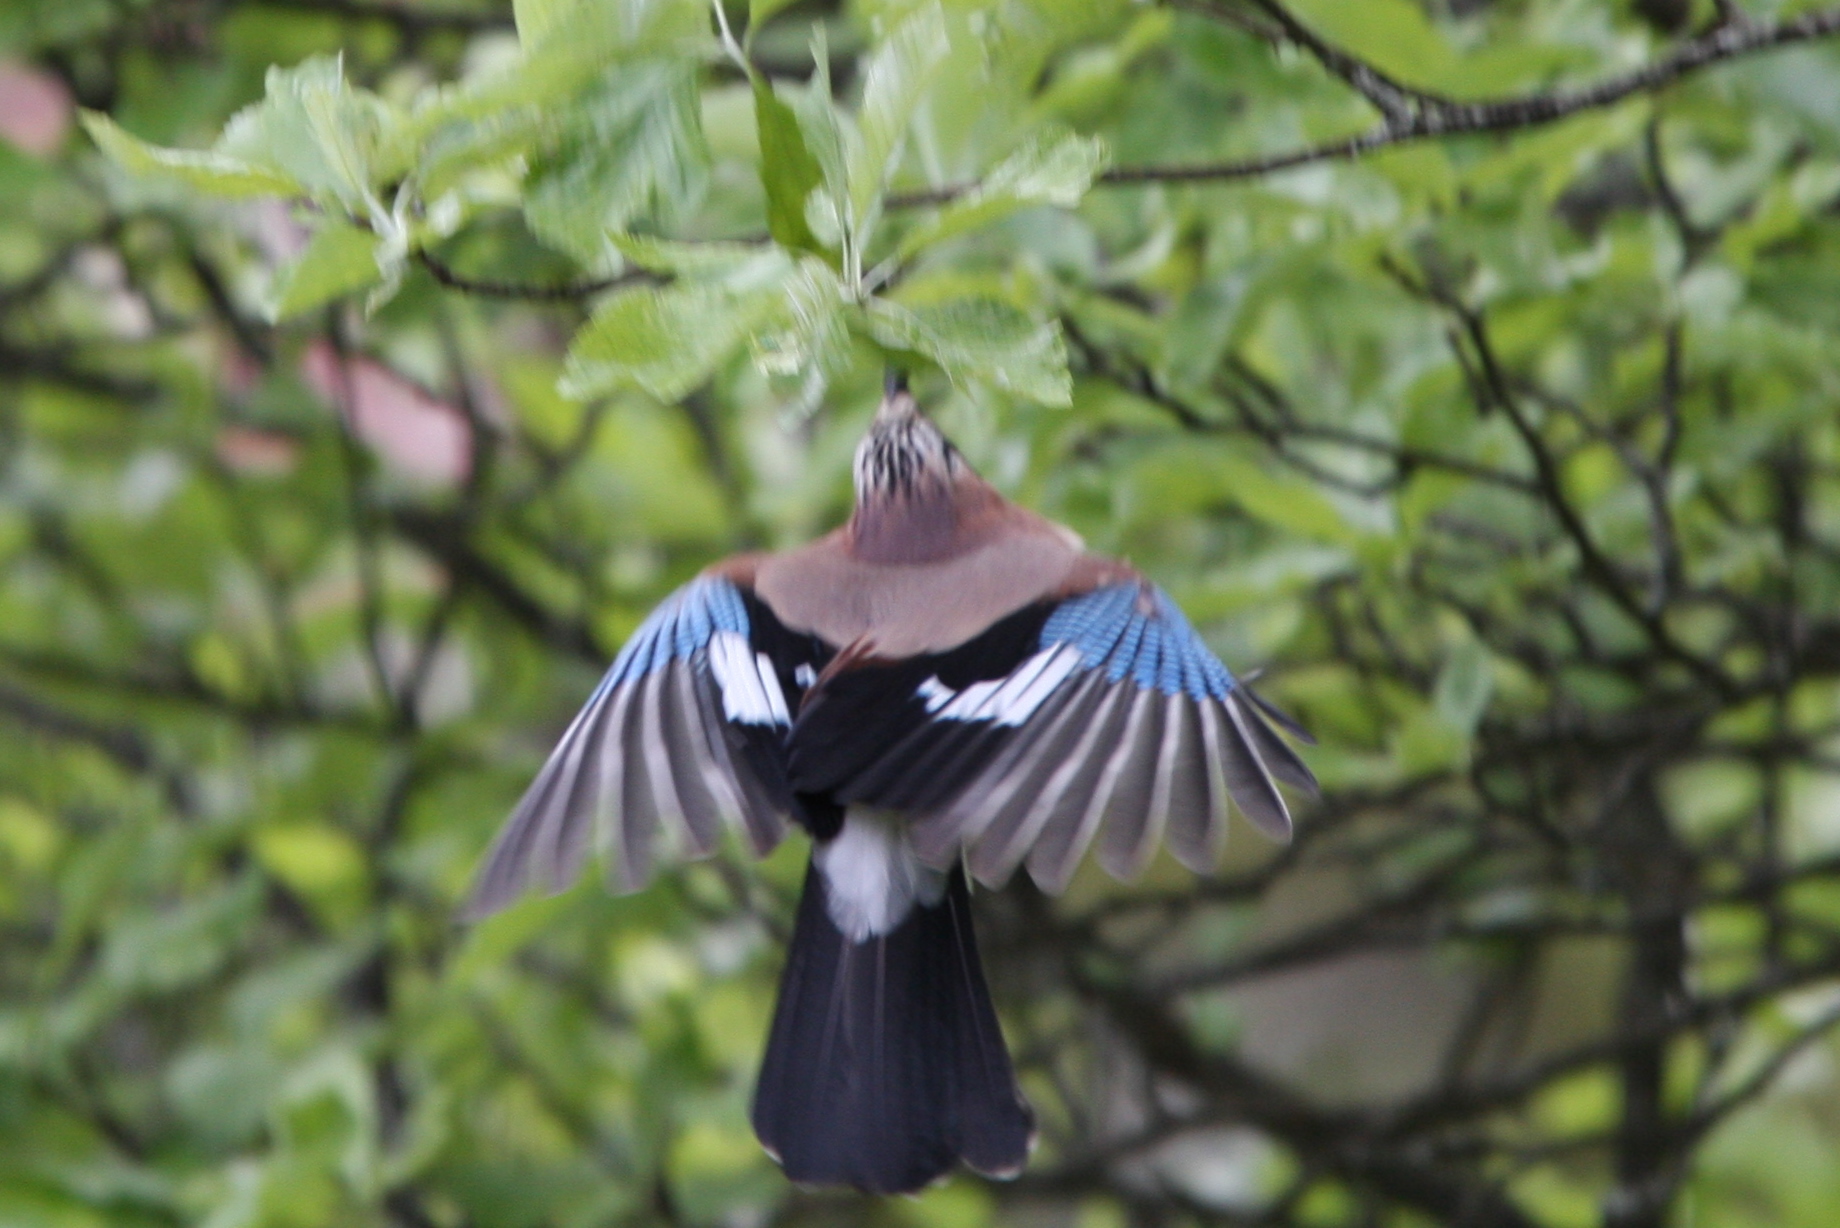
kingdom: Animalia
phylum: Chordata
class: Aves
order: Passeriformes
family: Corvidae
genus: Garrulus
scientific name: Garrulus glandarius
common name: Eurasian jay
